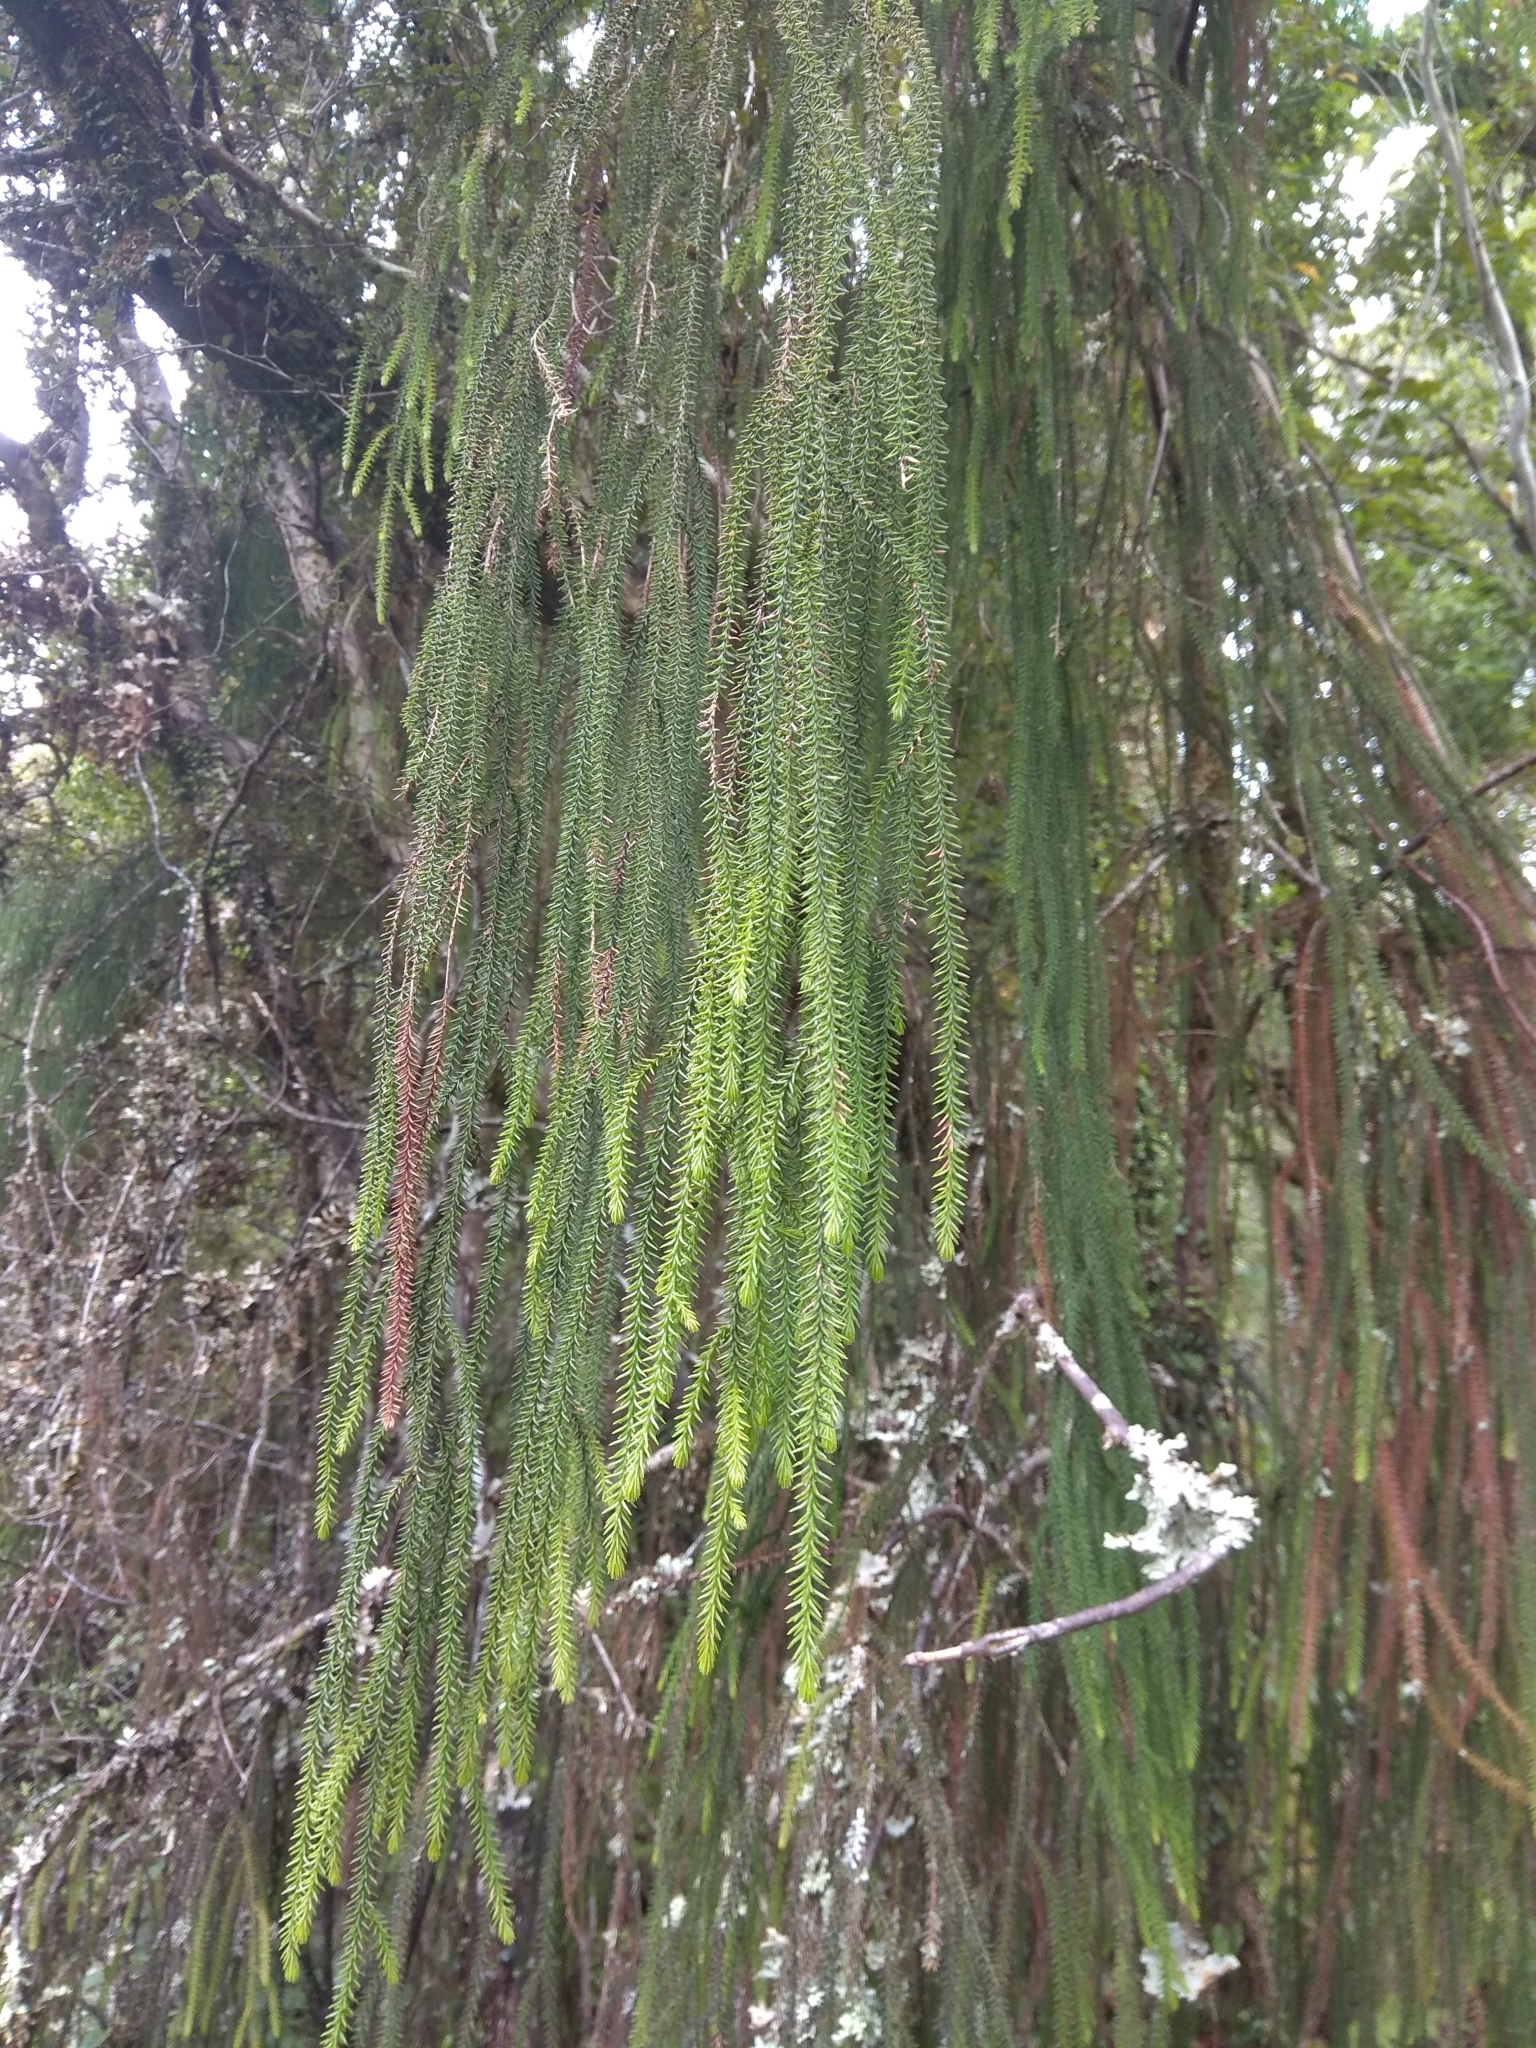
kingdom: Plantae
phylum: Tracheophyta
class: Pinopsida
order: Pinales
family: Podocarpaceae
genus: Dacrydium
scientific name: Dacrydium cupressinum
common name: Red pine
